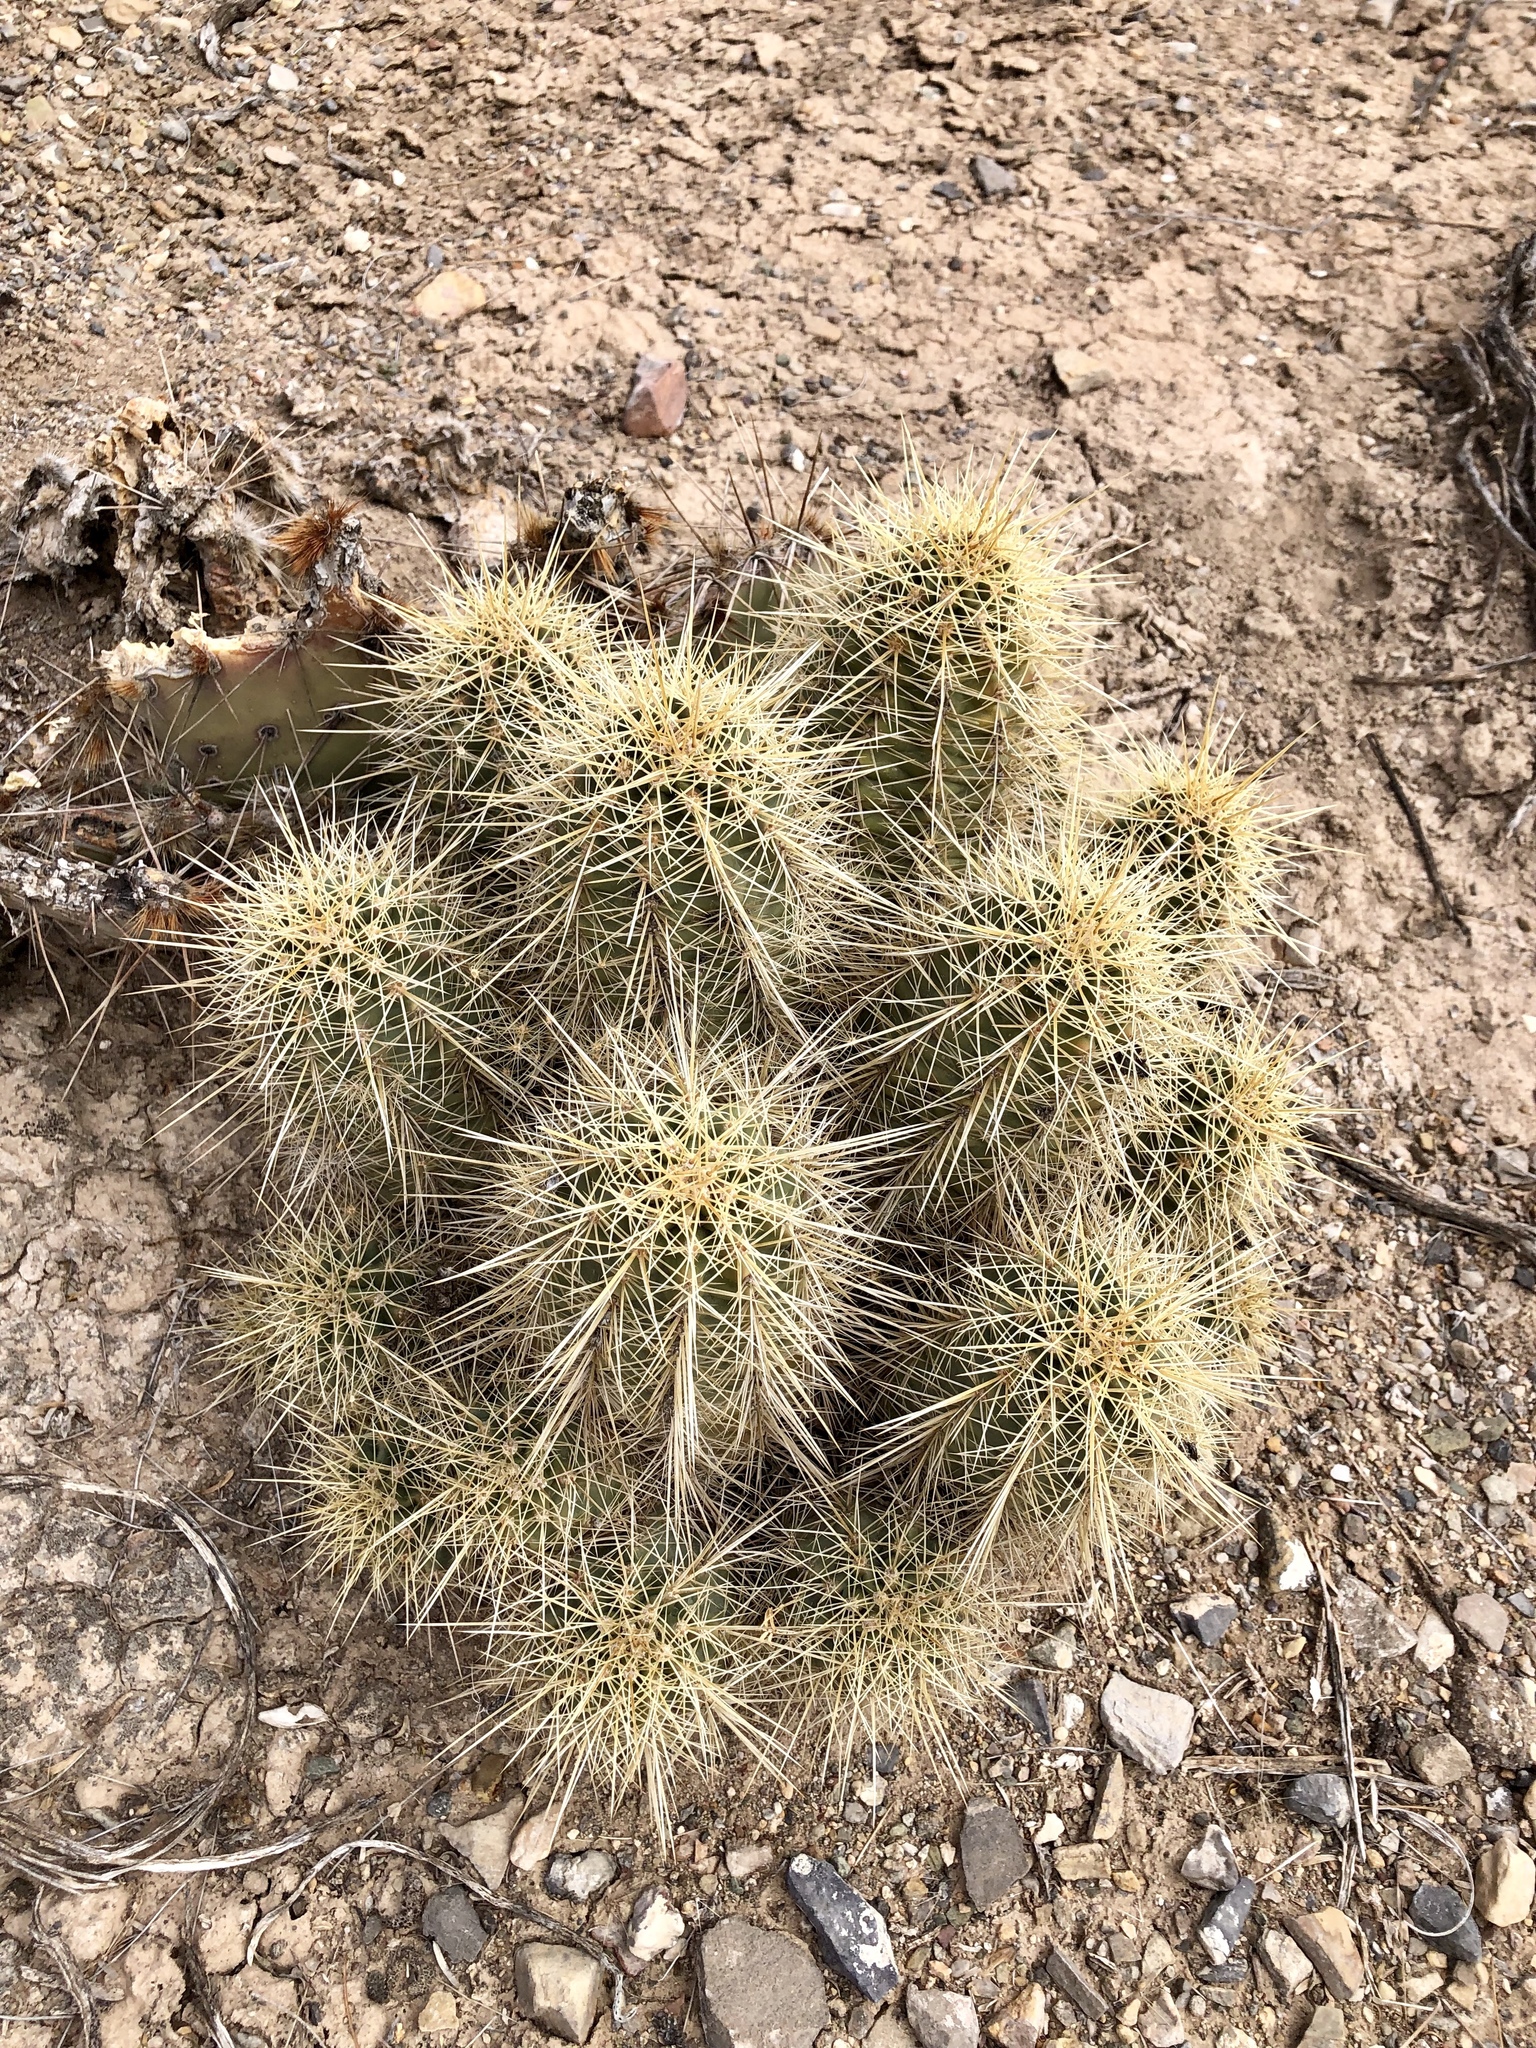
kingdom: Plantae
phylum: Tracheophyta
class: Magnoliopsida
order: Caryophyllales
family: Cactaceae
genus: Echinocereus
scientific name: Echinocereus coccineus
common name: Scarlet hedgehog cactus
